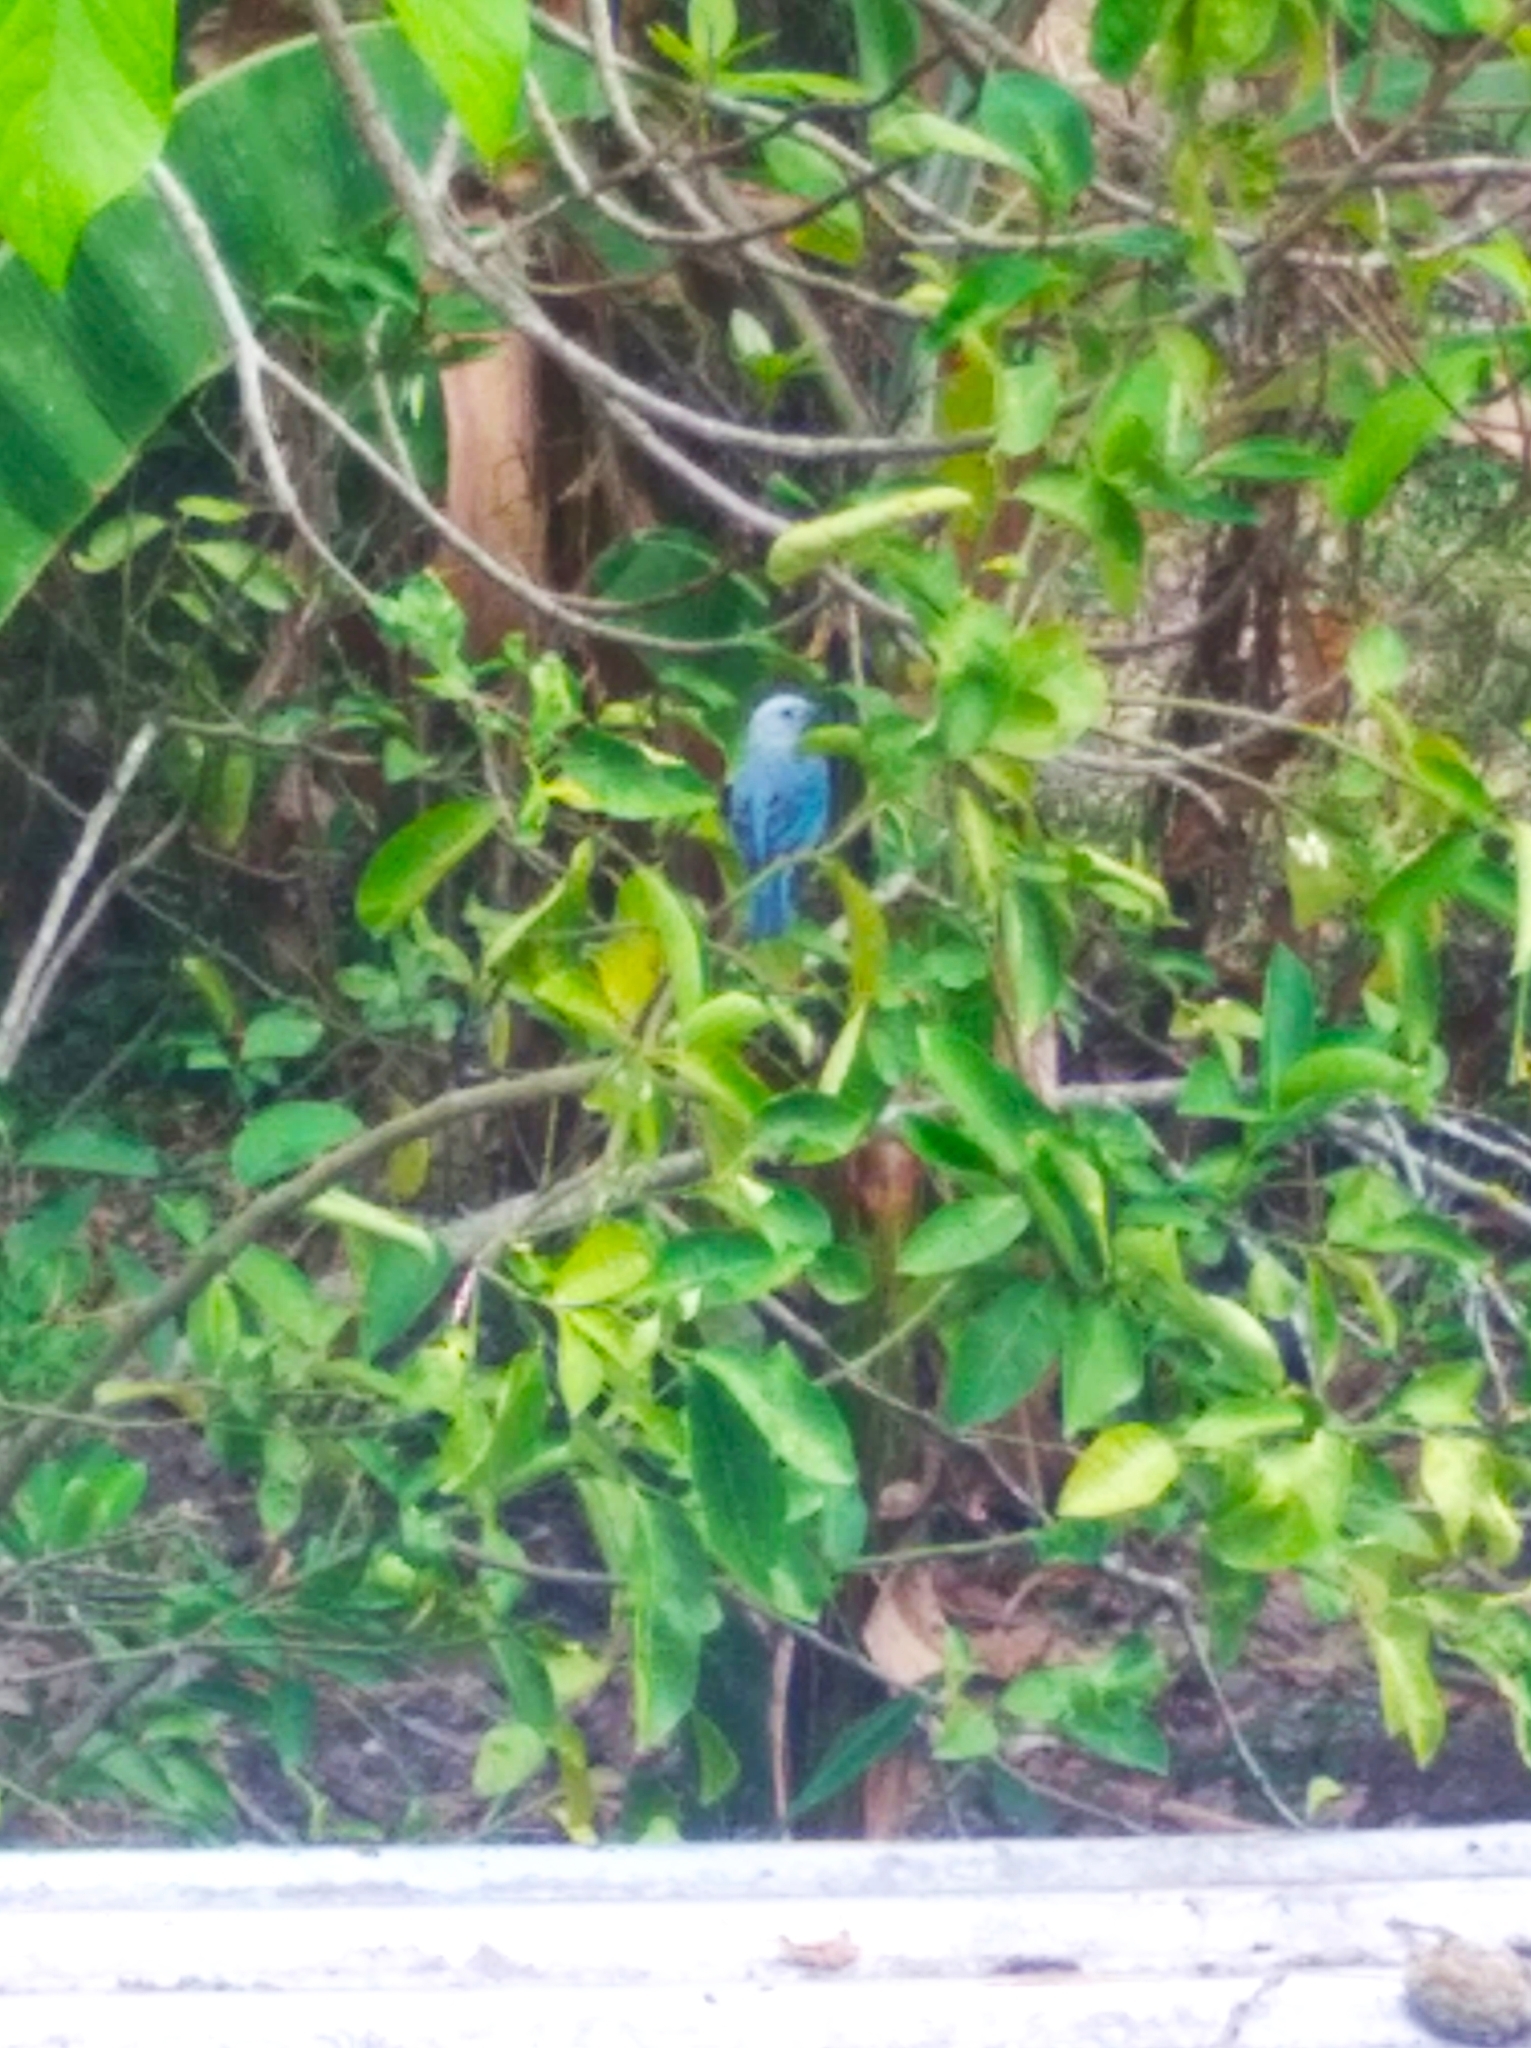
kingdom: Animalia
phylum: Chordata
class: Aves
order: Passeriformes
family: Thraupidae
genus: Thraupis
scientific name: Thraupis episcopus
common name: Blue-grey tanager
